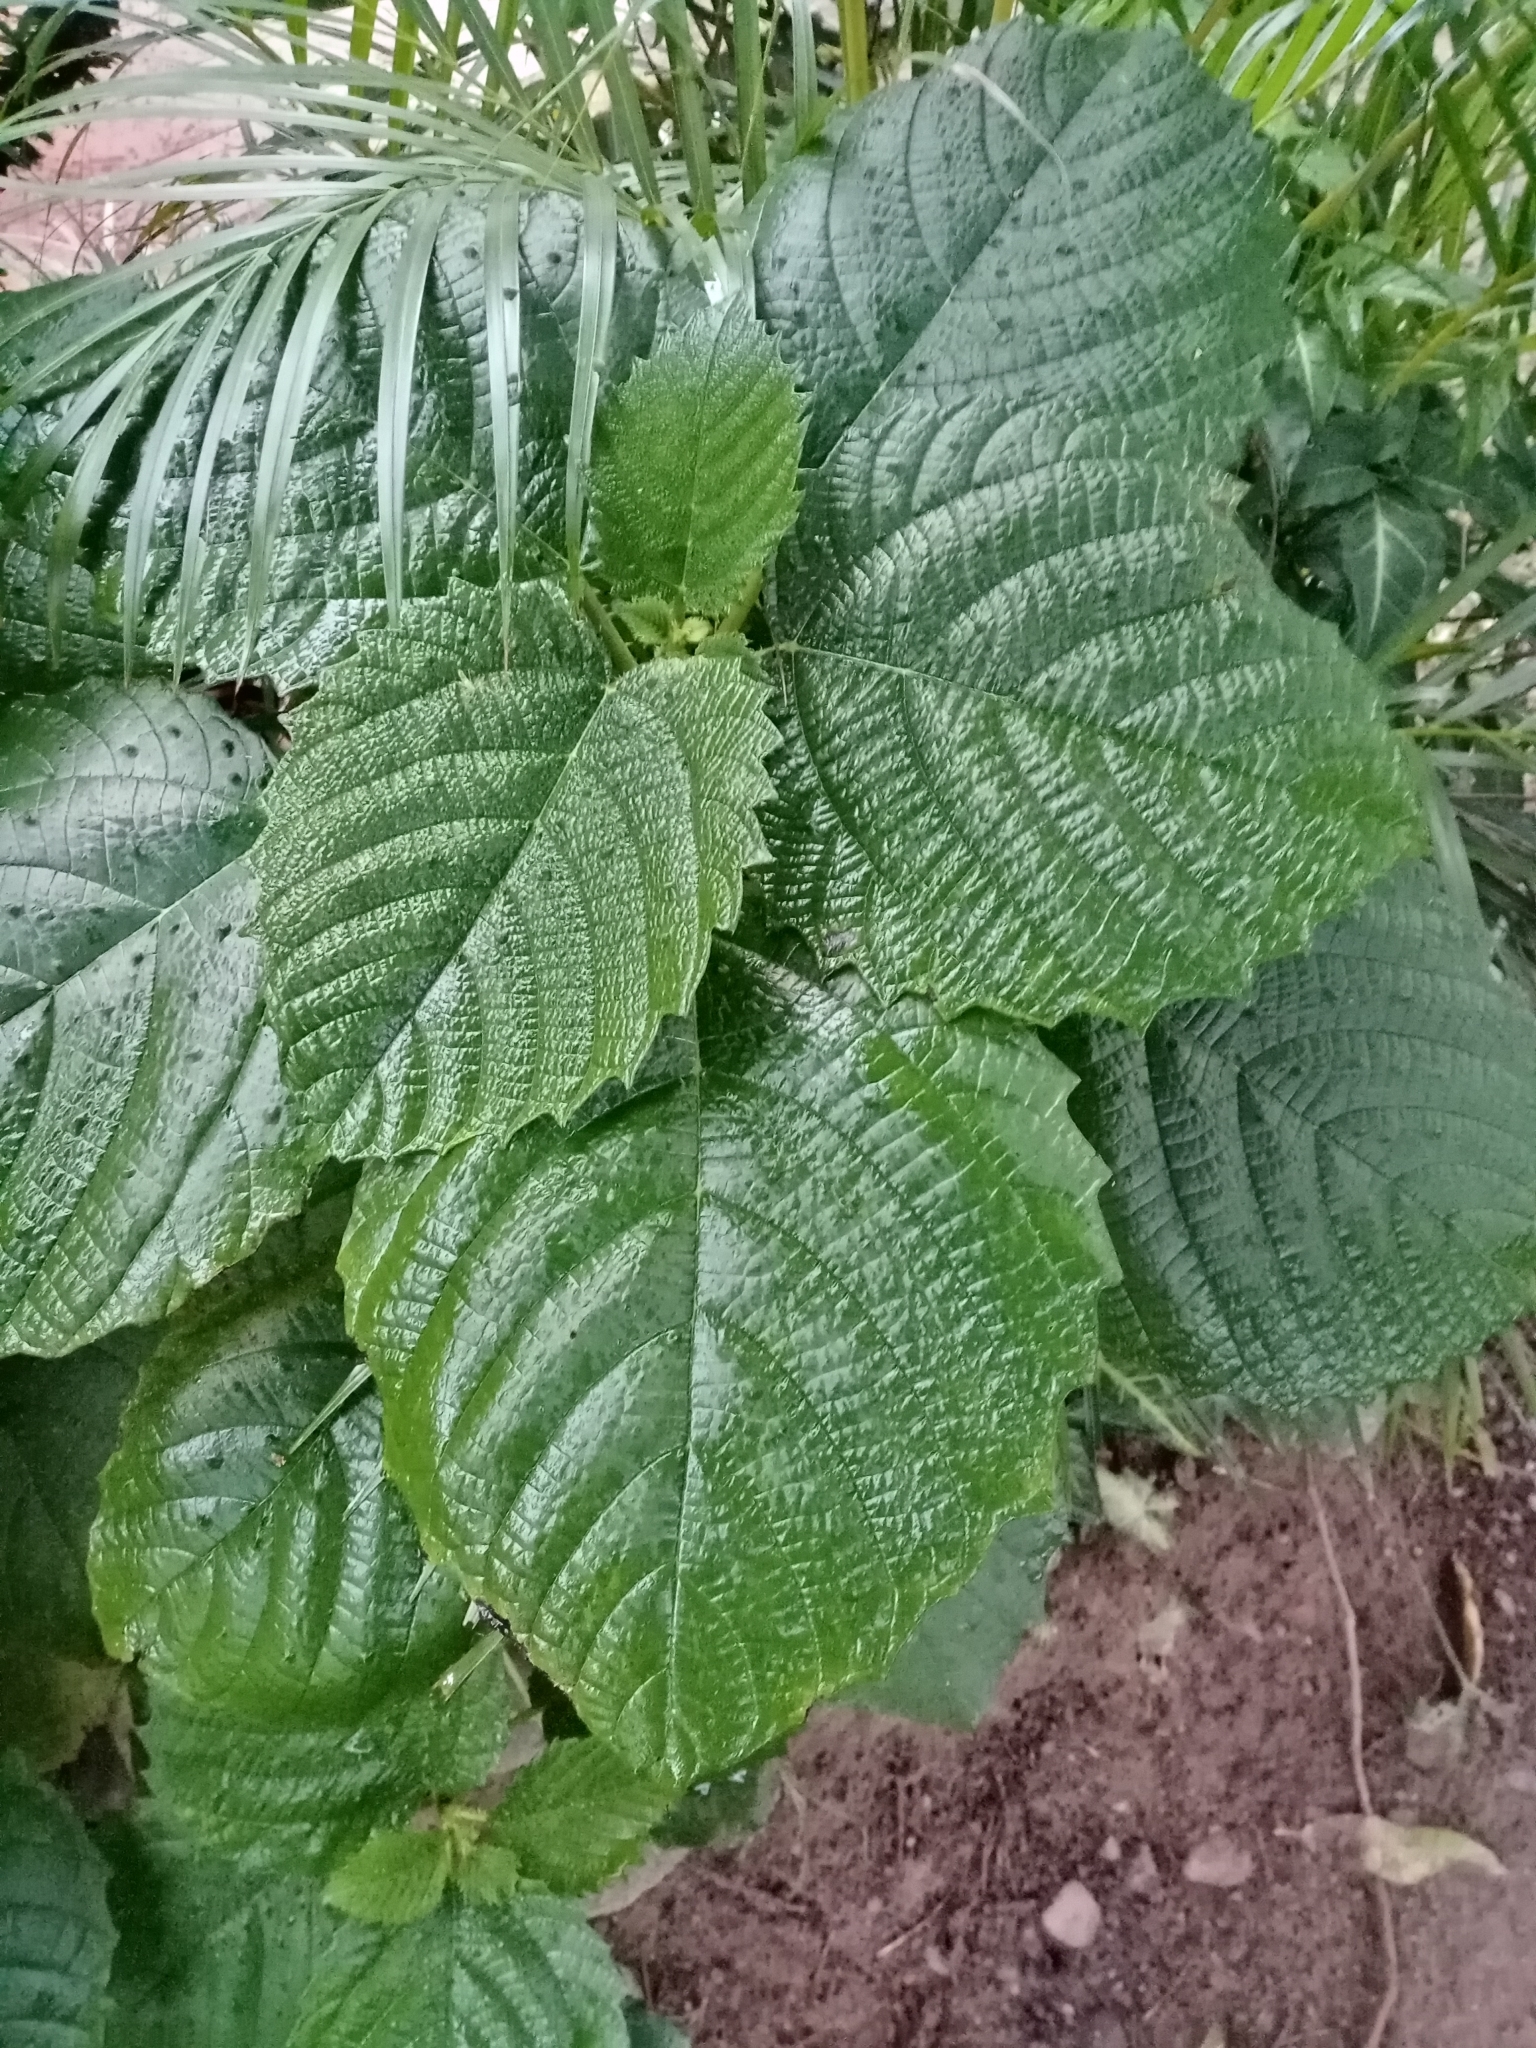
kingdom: Plantae
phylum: Tracheophyta
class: Magnoliopsida
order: Rosales
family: Urticaceae
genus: Urera
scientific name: Urera baccifera
